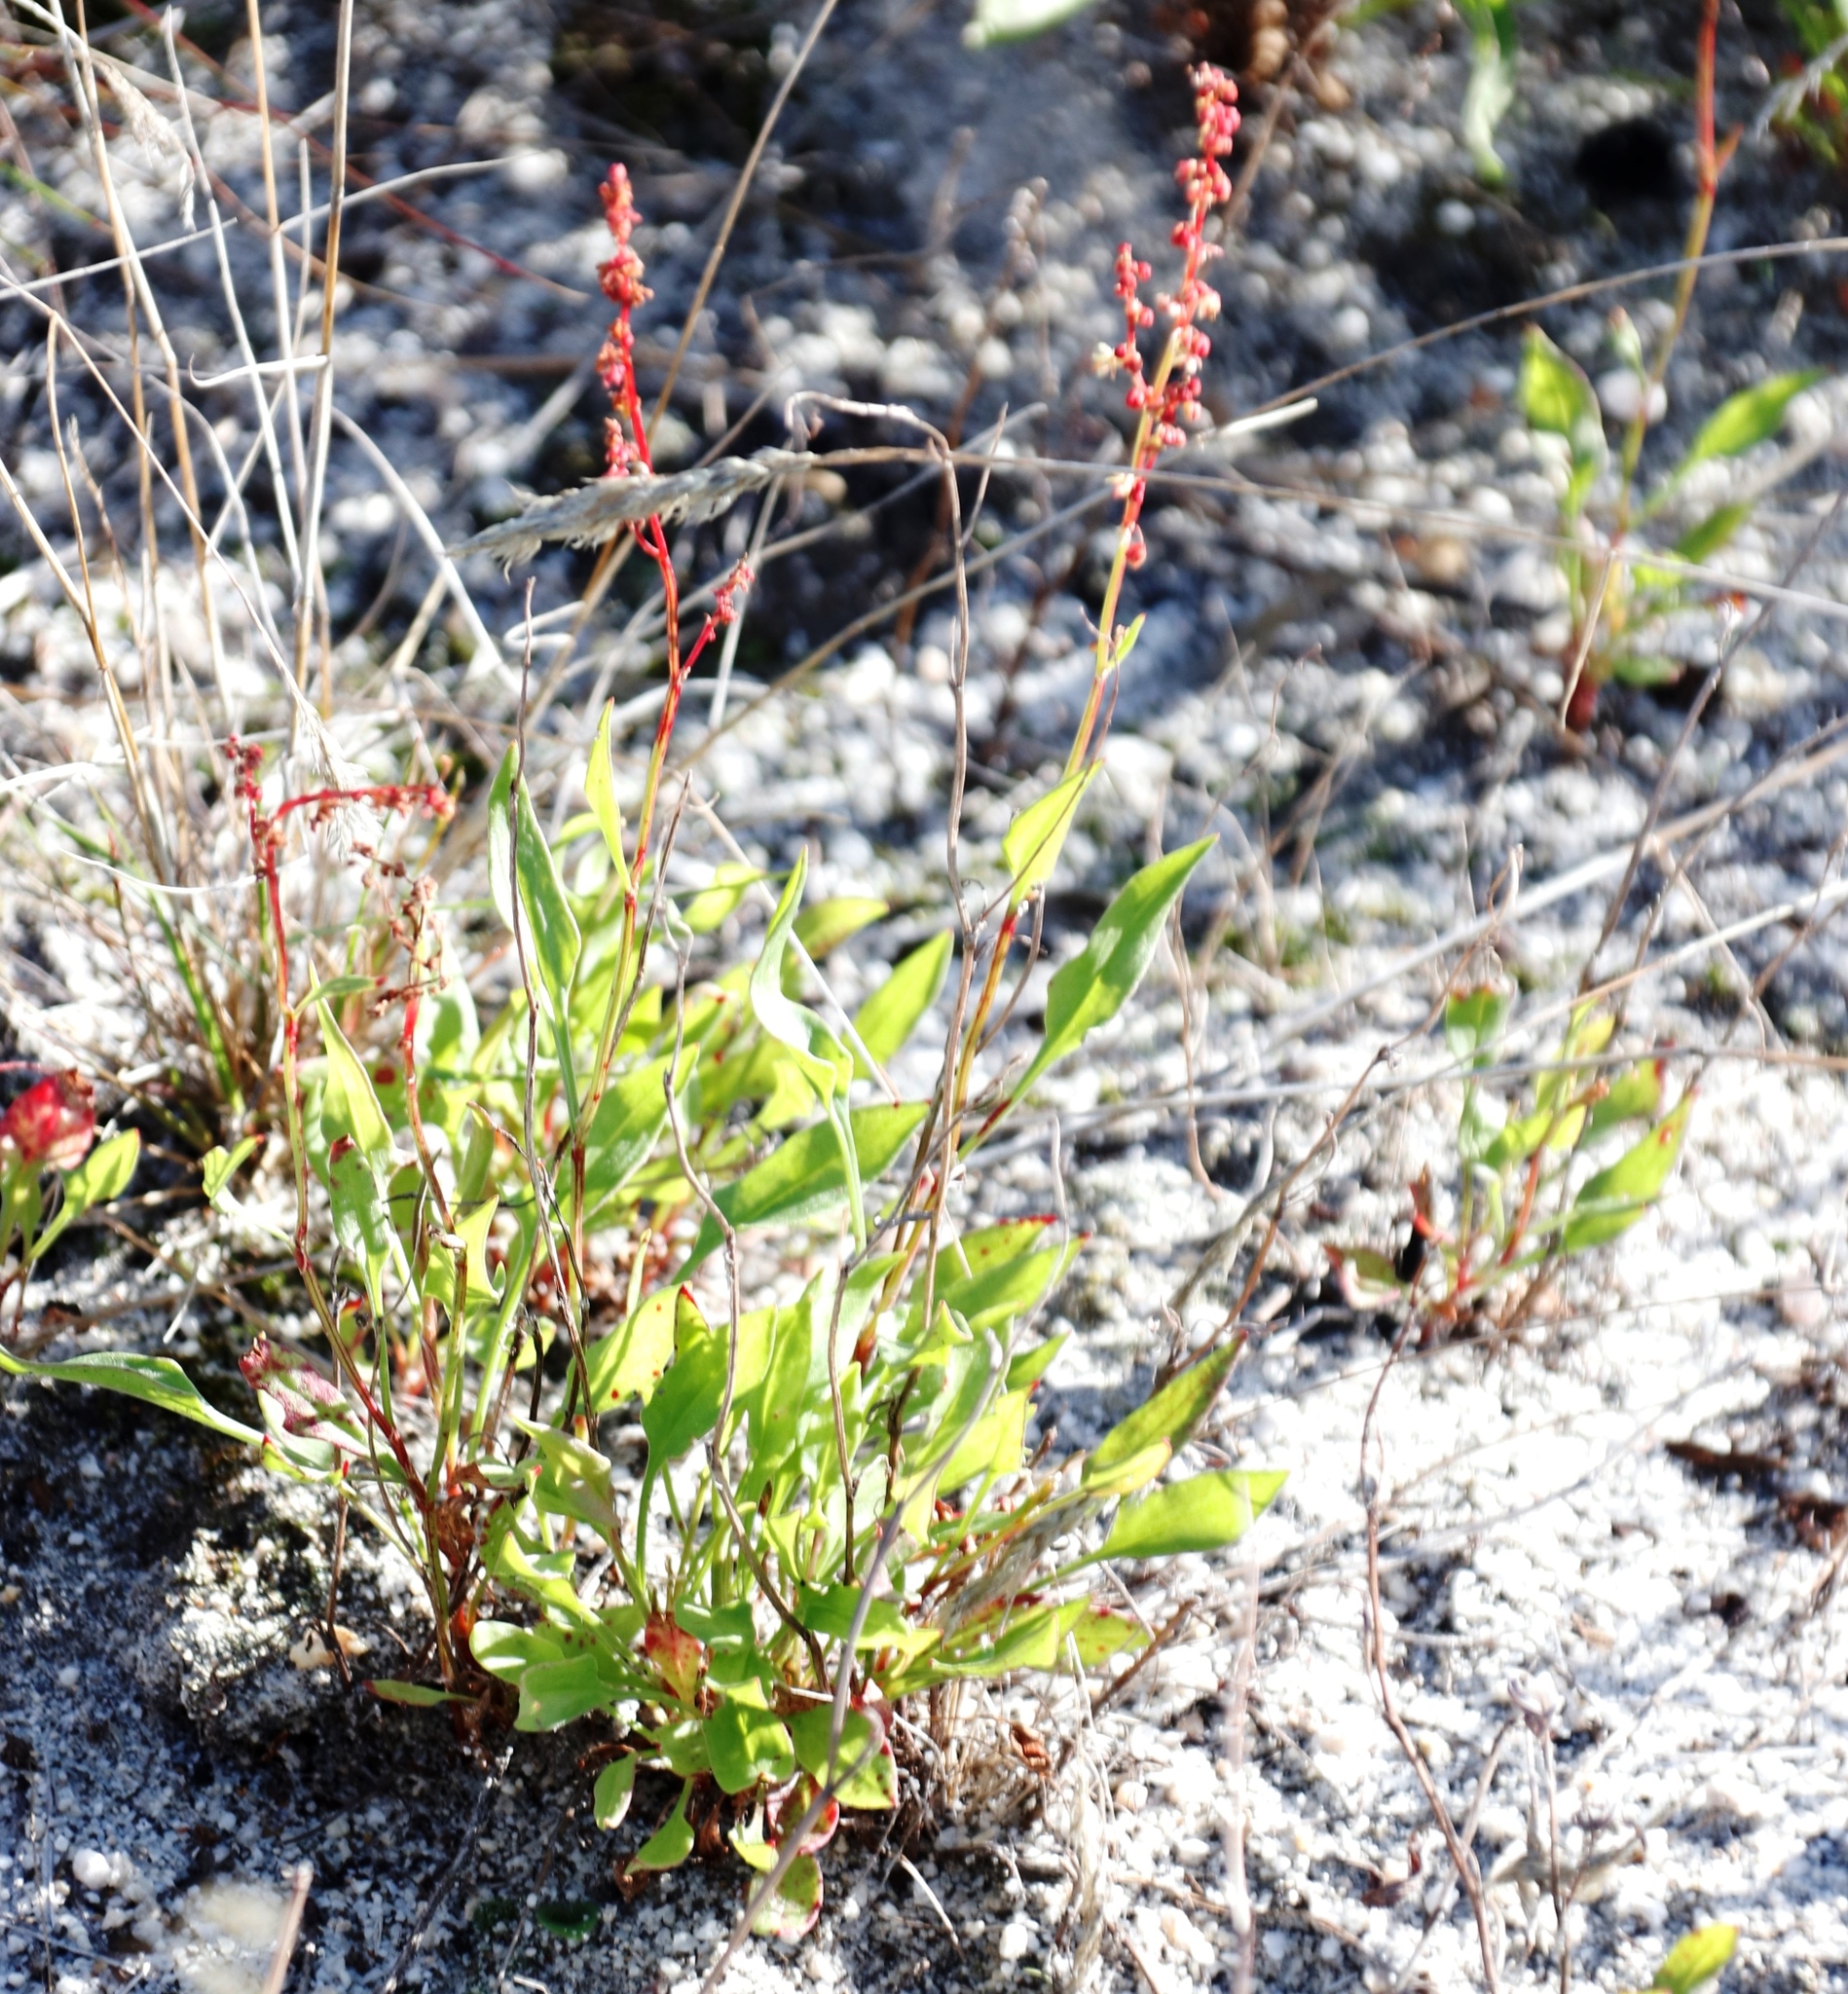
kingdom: Plantae
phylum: Tracheophyta
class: Magnoliopsida
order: Caryophyllales
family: Polygonaceae
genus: Rumex
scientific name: Rumex acetosella
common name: Common sheep sorrel
